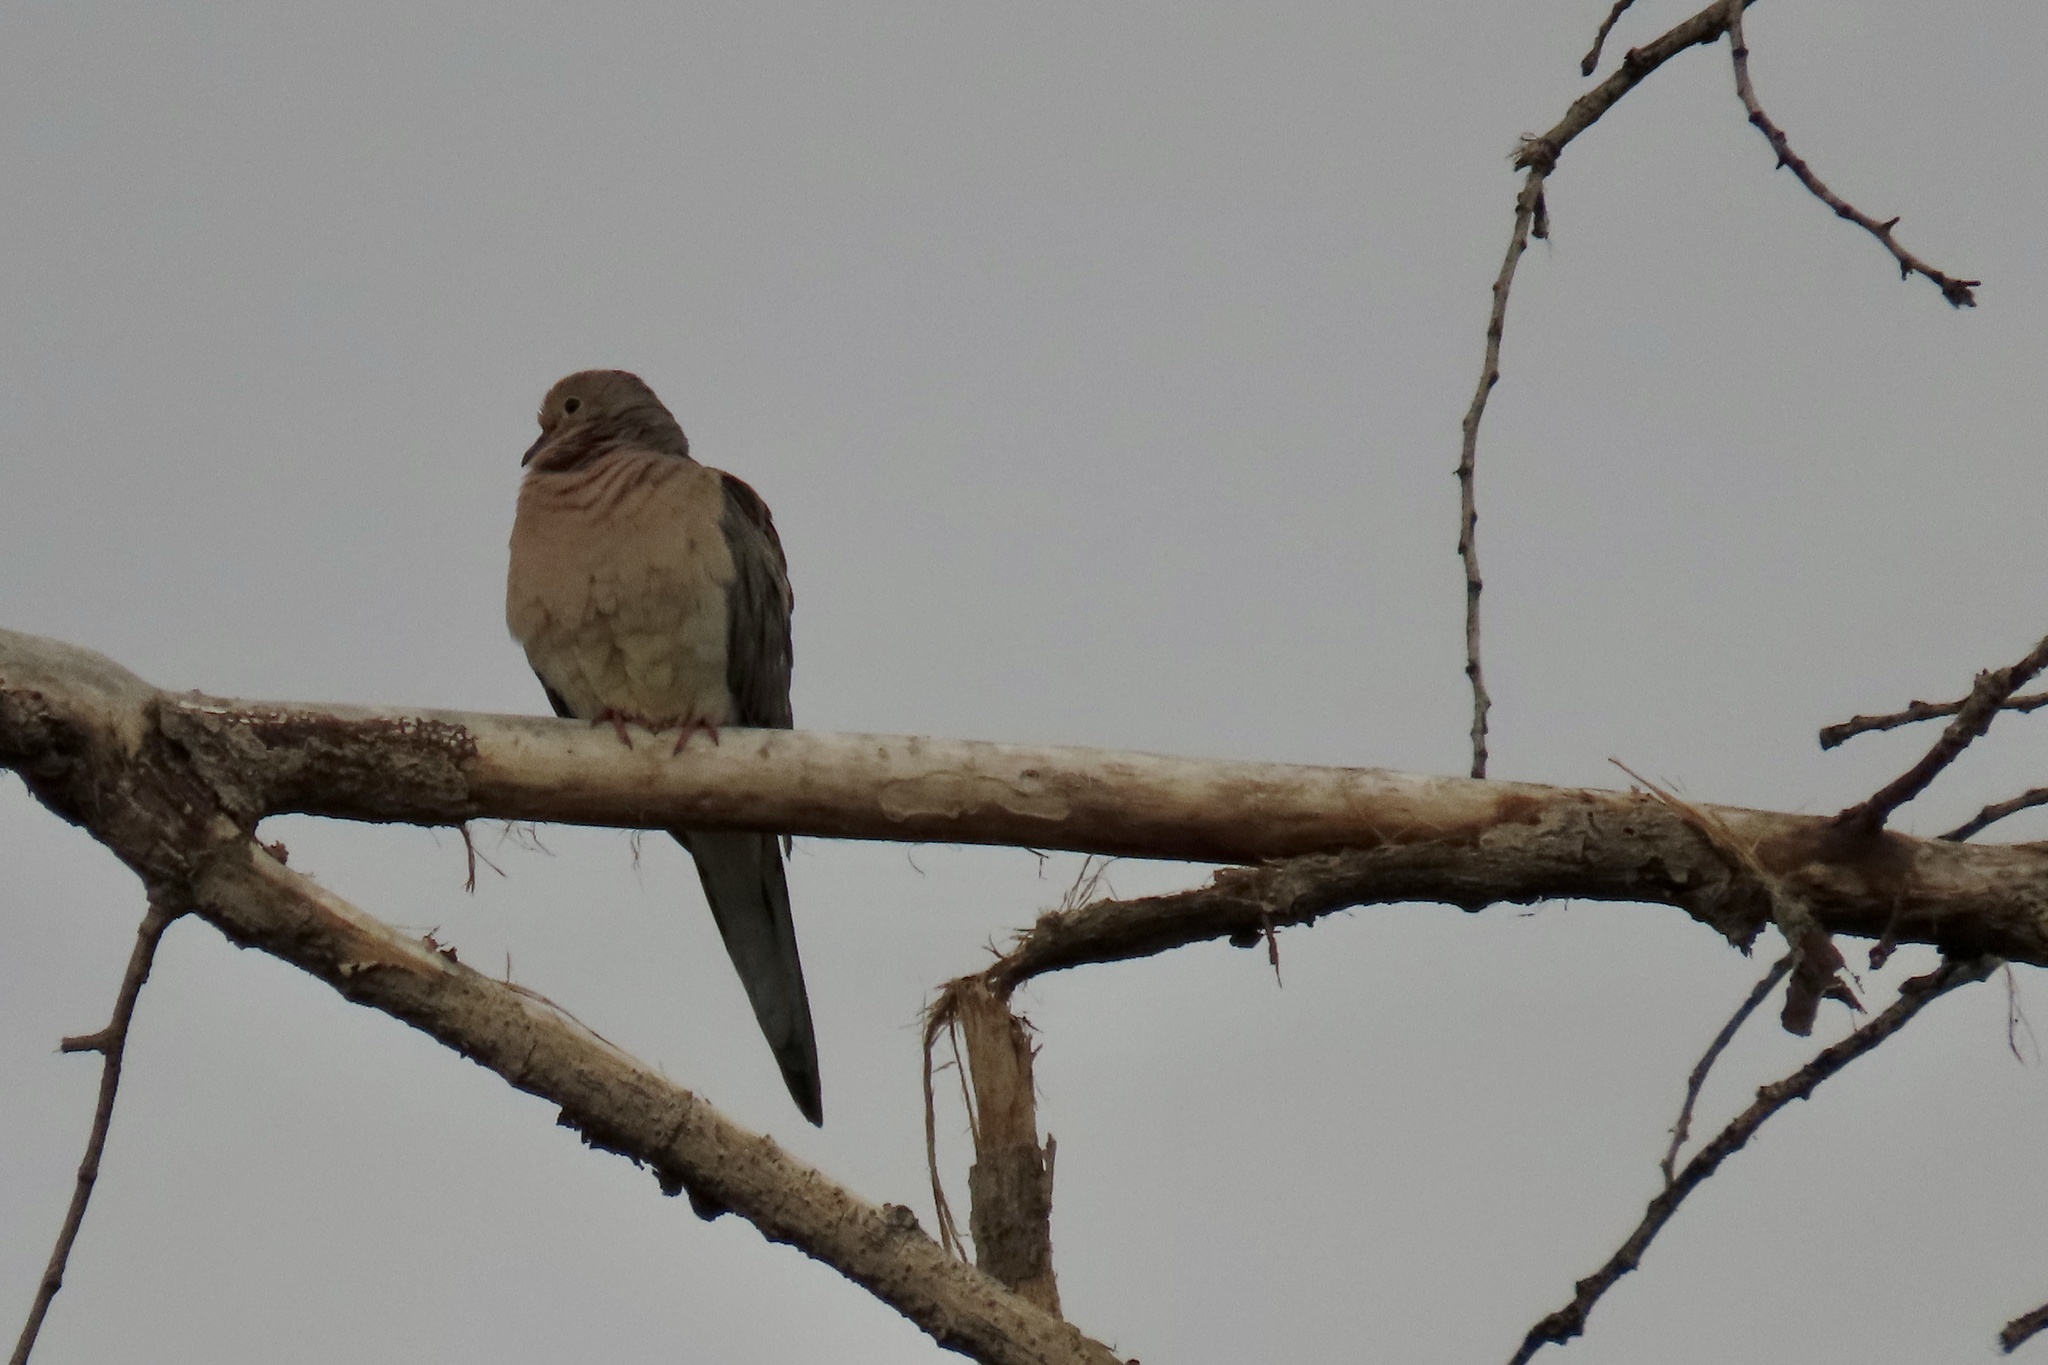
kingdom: Animalia
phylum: Chordata
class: Aves
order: Columbiformes
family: Columbidae
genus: Zenaida
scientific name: Zenaida macroura
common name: Mourning dove
